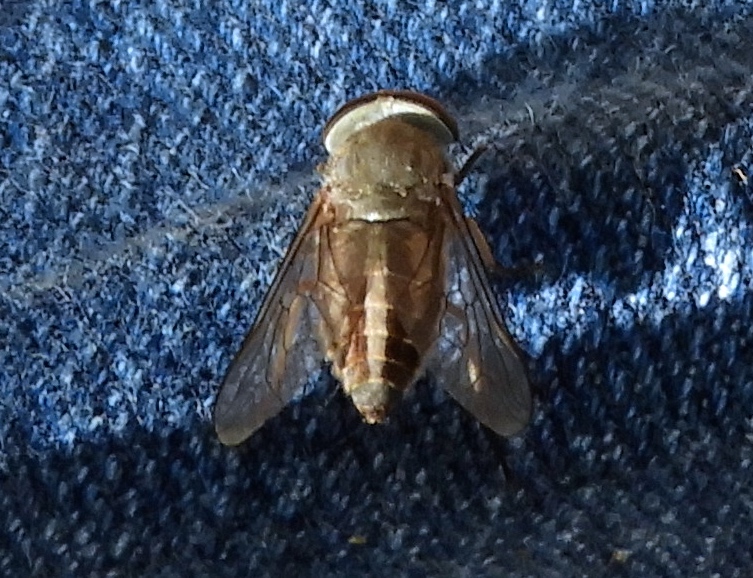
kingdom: Animalia
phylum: Arthropoda
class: Insecta
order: Diptera
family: Tabanidae
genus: Tabanus
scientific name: Tabanus
